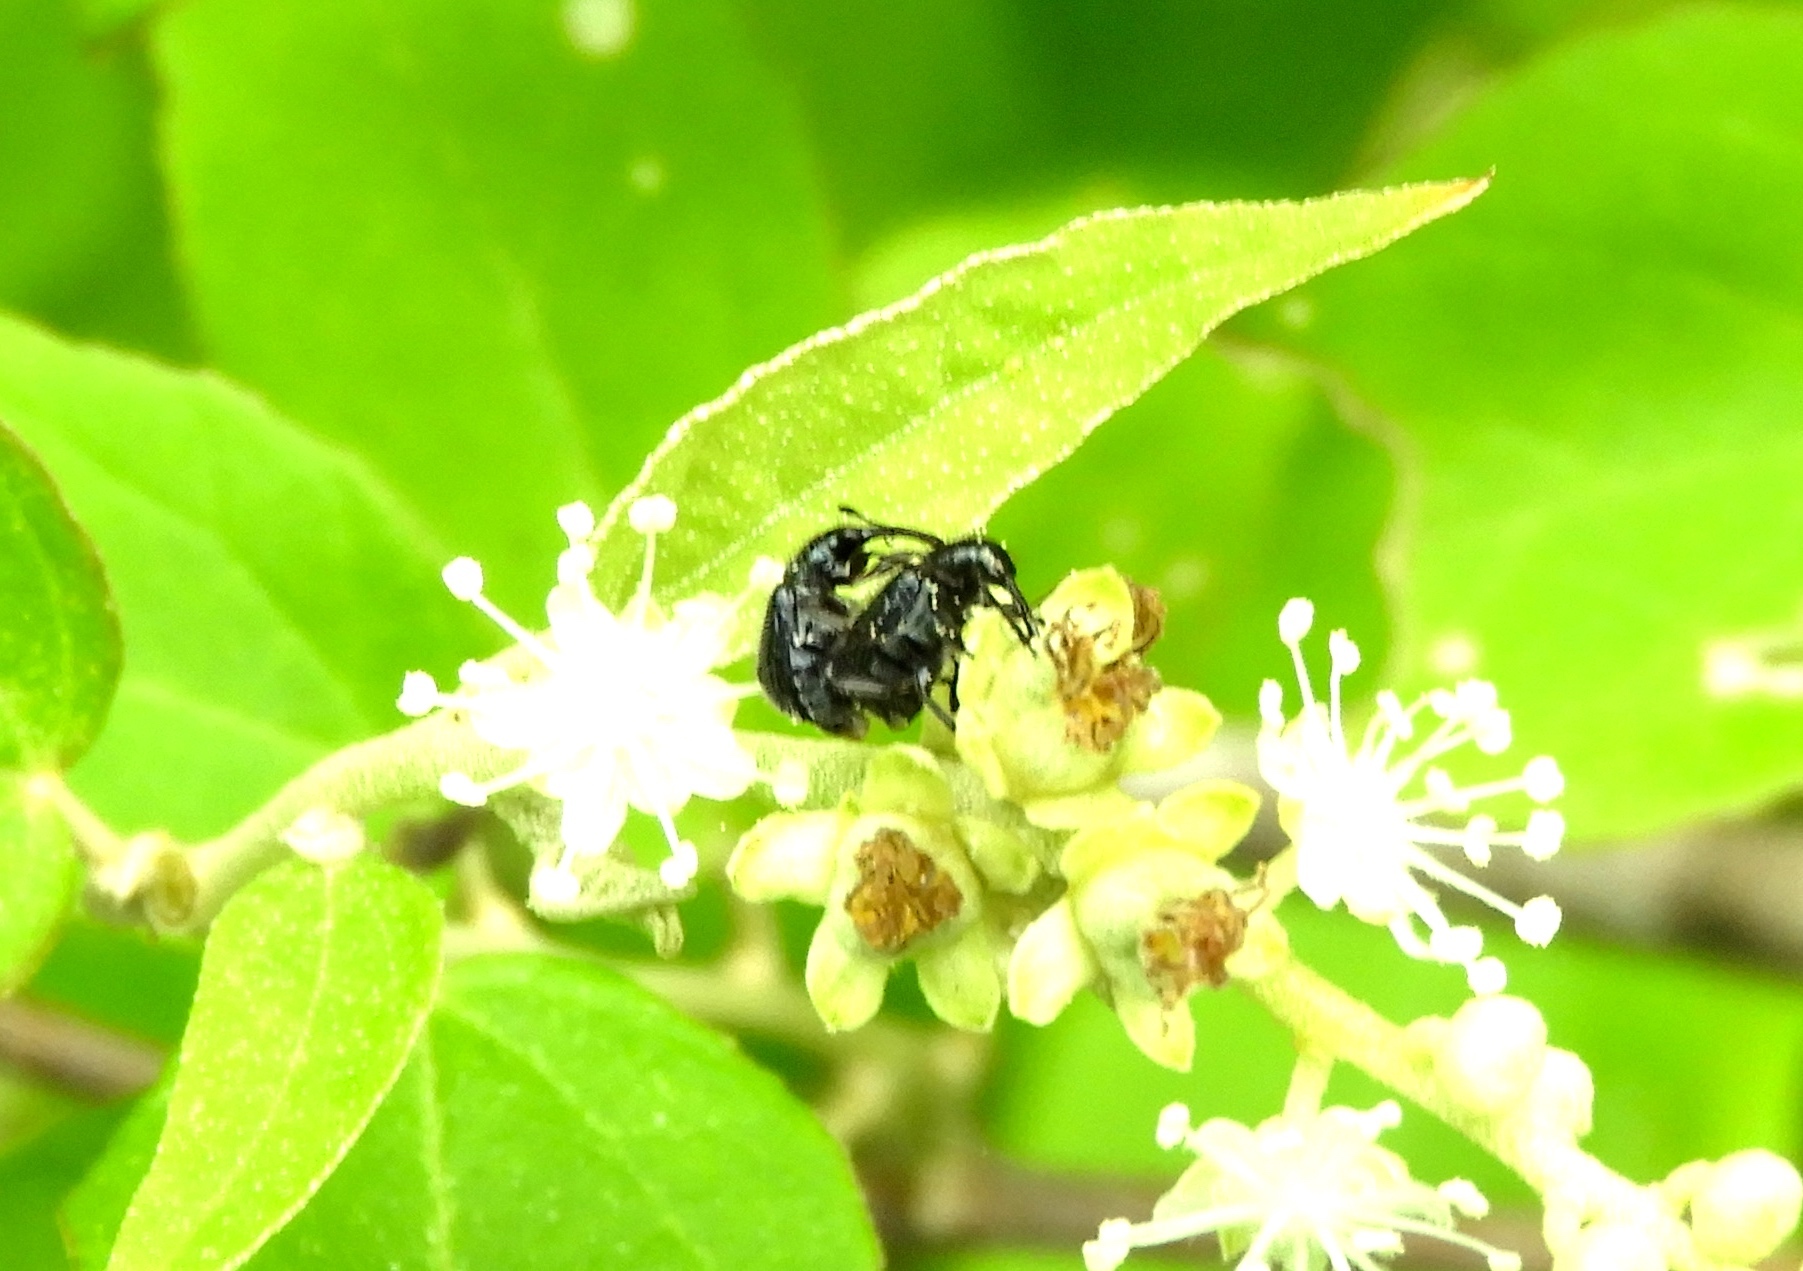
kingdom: Animalia
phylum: Arthropoda
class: Insecta
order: Coleoptera
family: Rhynchitidae
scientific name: Rhynchitidae
